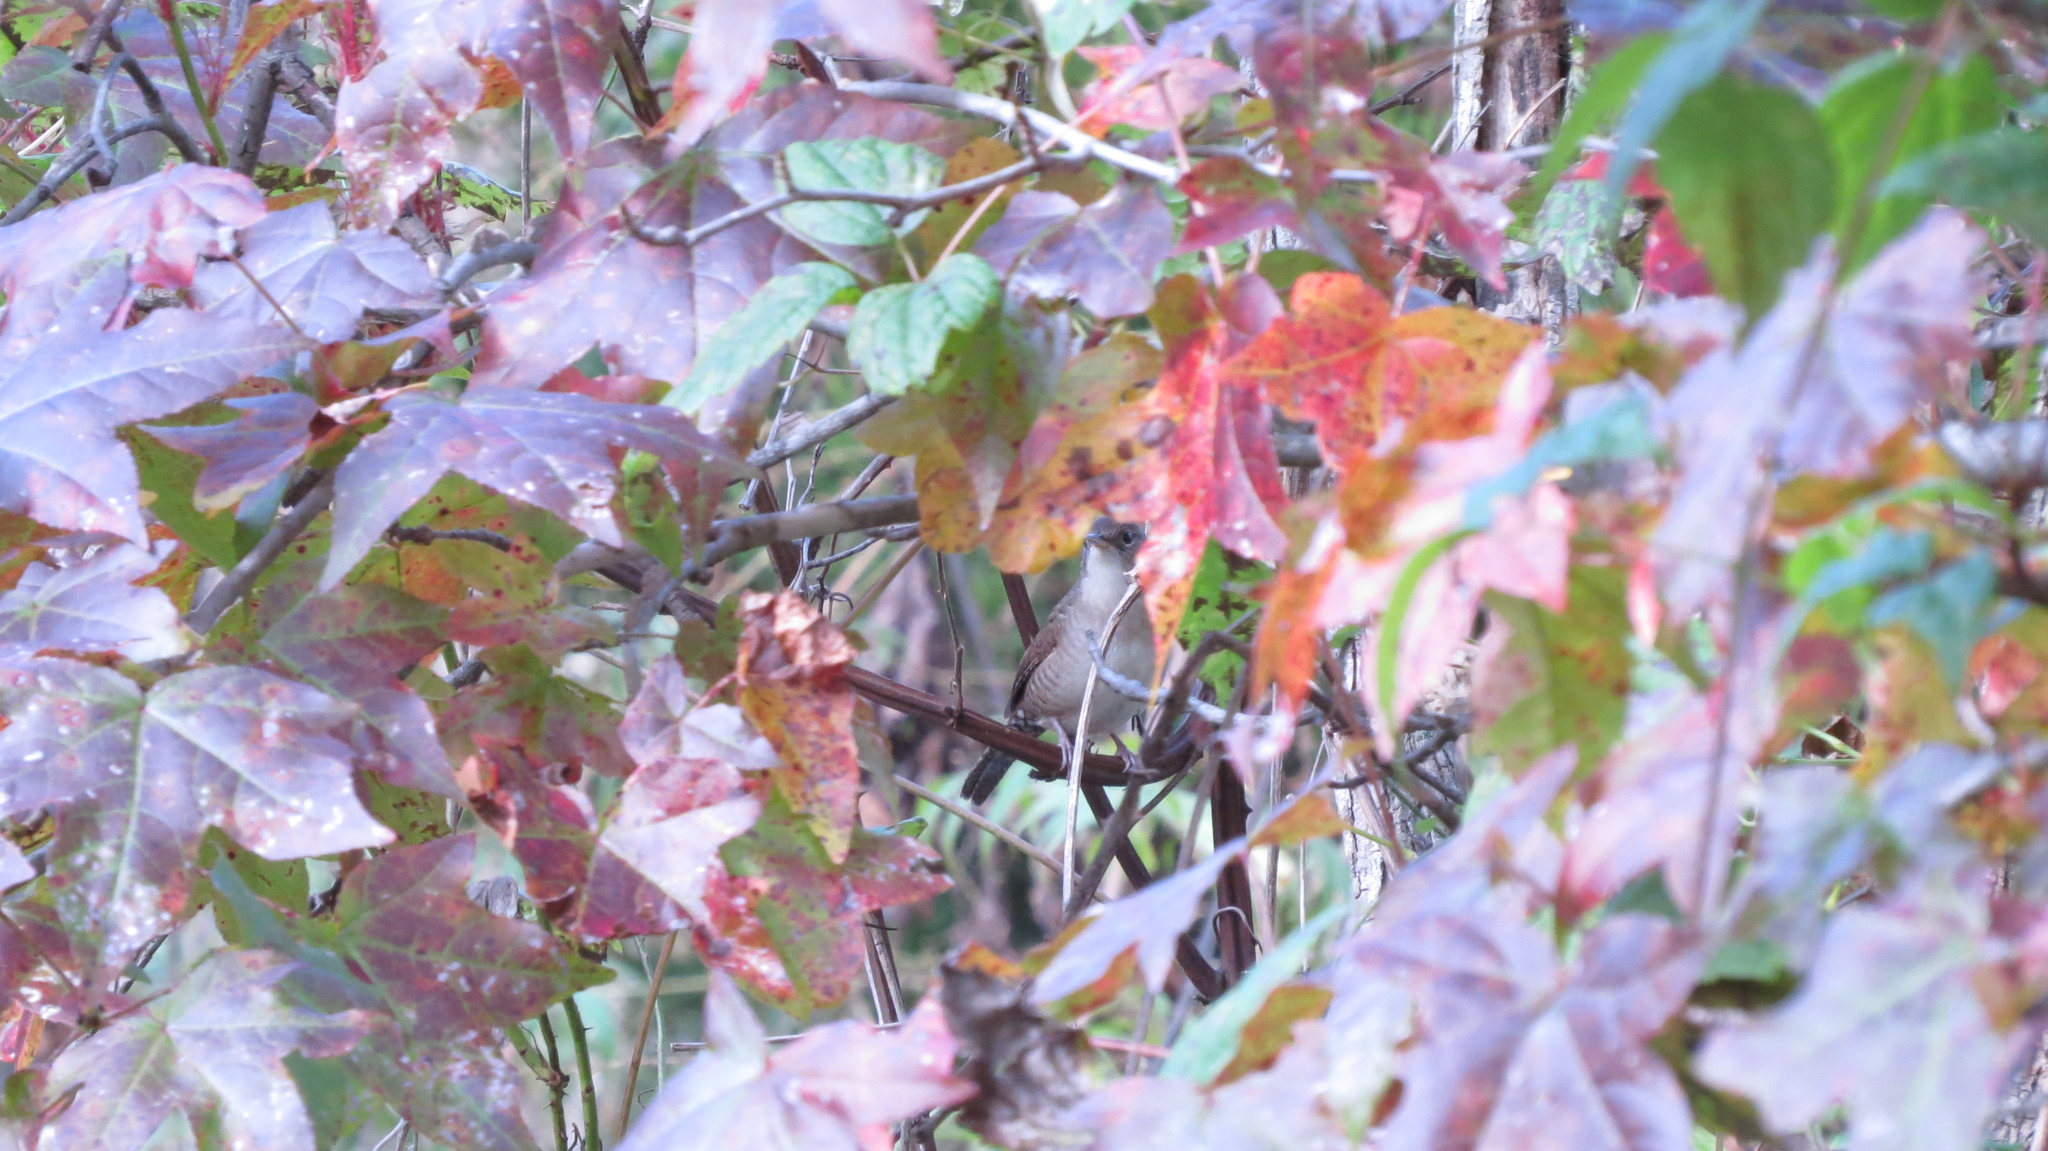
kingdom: Animalia
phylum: Chordata
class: Aves
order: Passeriformes
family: Troglodytidae
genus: Troglodytes
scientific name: Troglodytes aedon
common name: House wren
